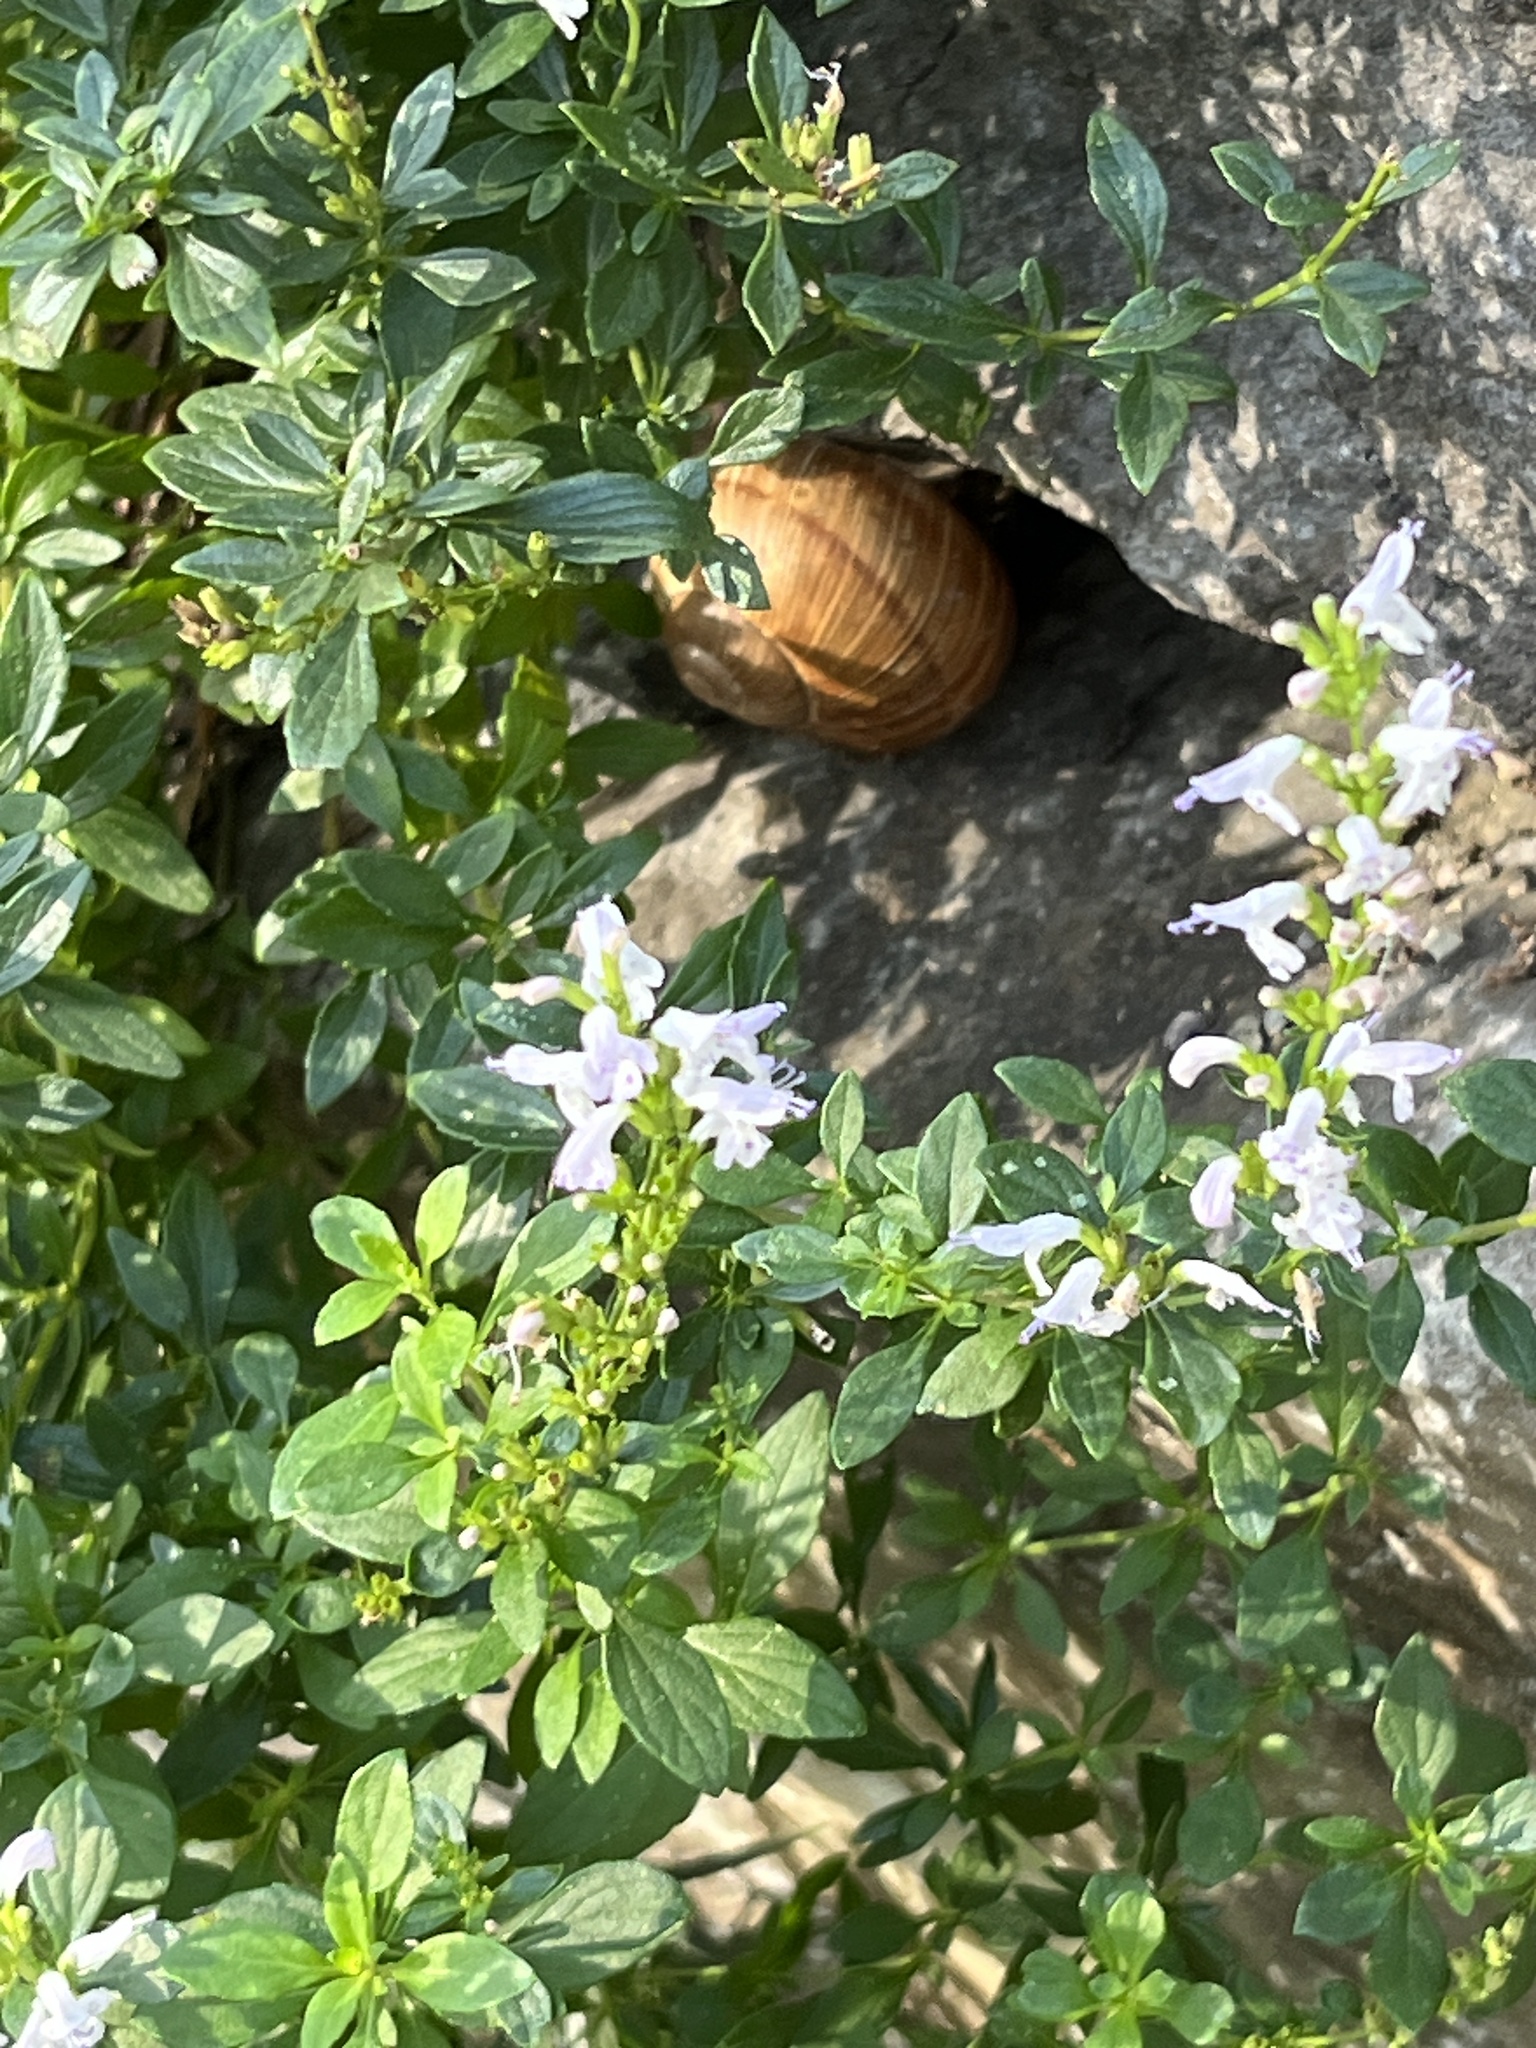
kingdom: Animalia
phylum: Mollusca
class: Gastropoda
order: Stylommatophora
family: Helicidae
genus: Helix
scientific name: Helix pomatia
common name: Roman snail
